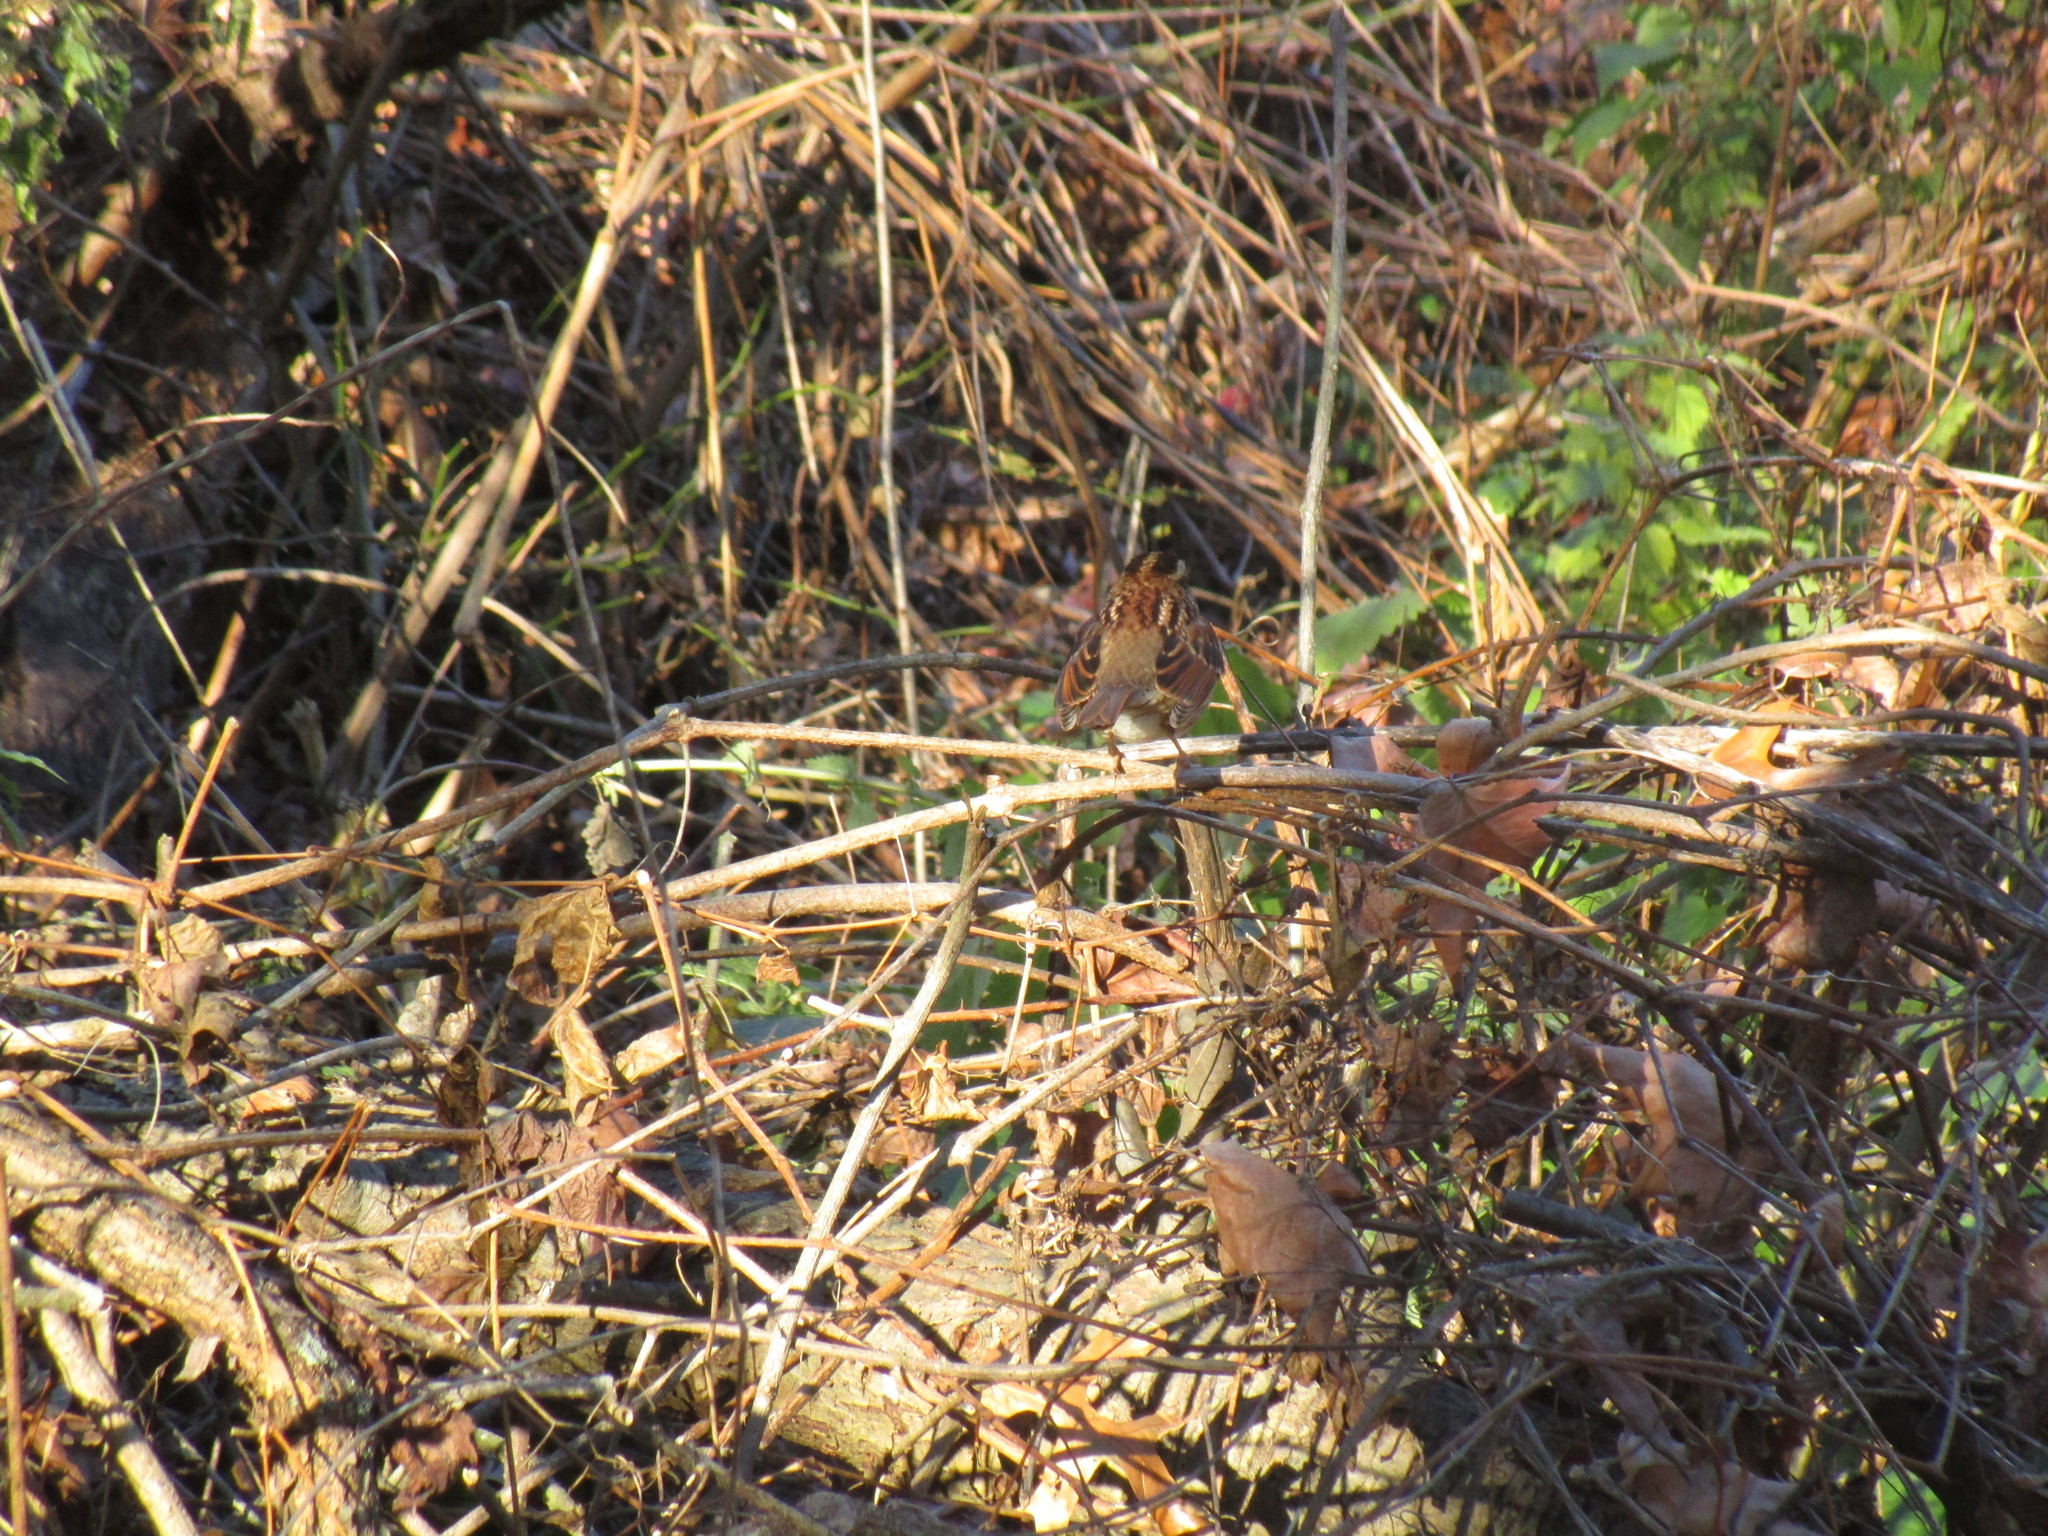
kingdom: Animalia
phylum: Chordata
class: Aves
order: Passeriformes
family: Passerellidae
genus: Zonotrichia
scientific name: Zonotrichia albicollis
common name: White-throated sparrow
